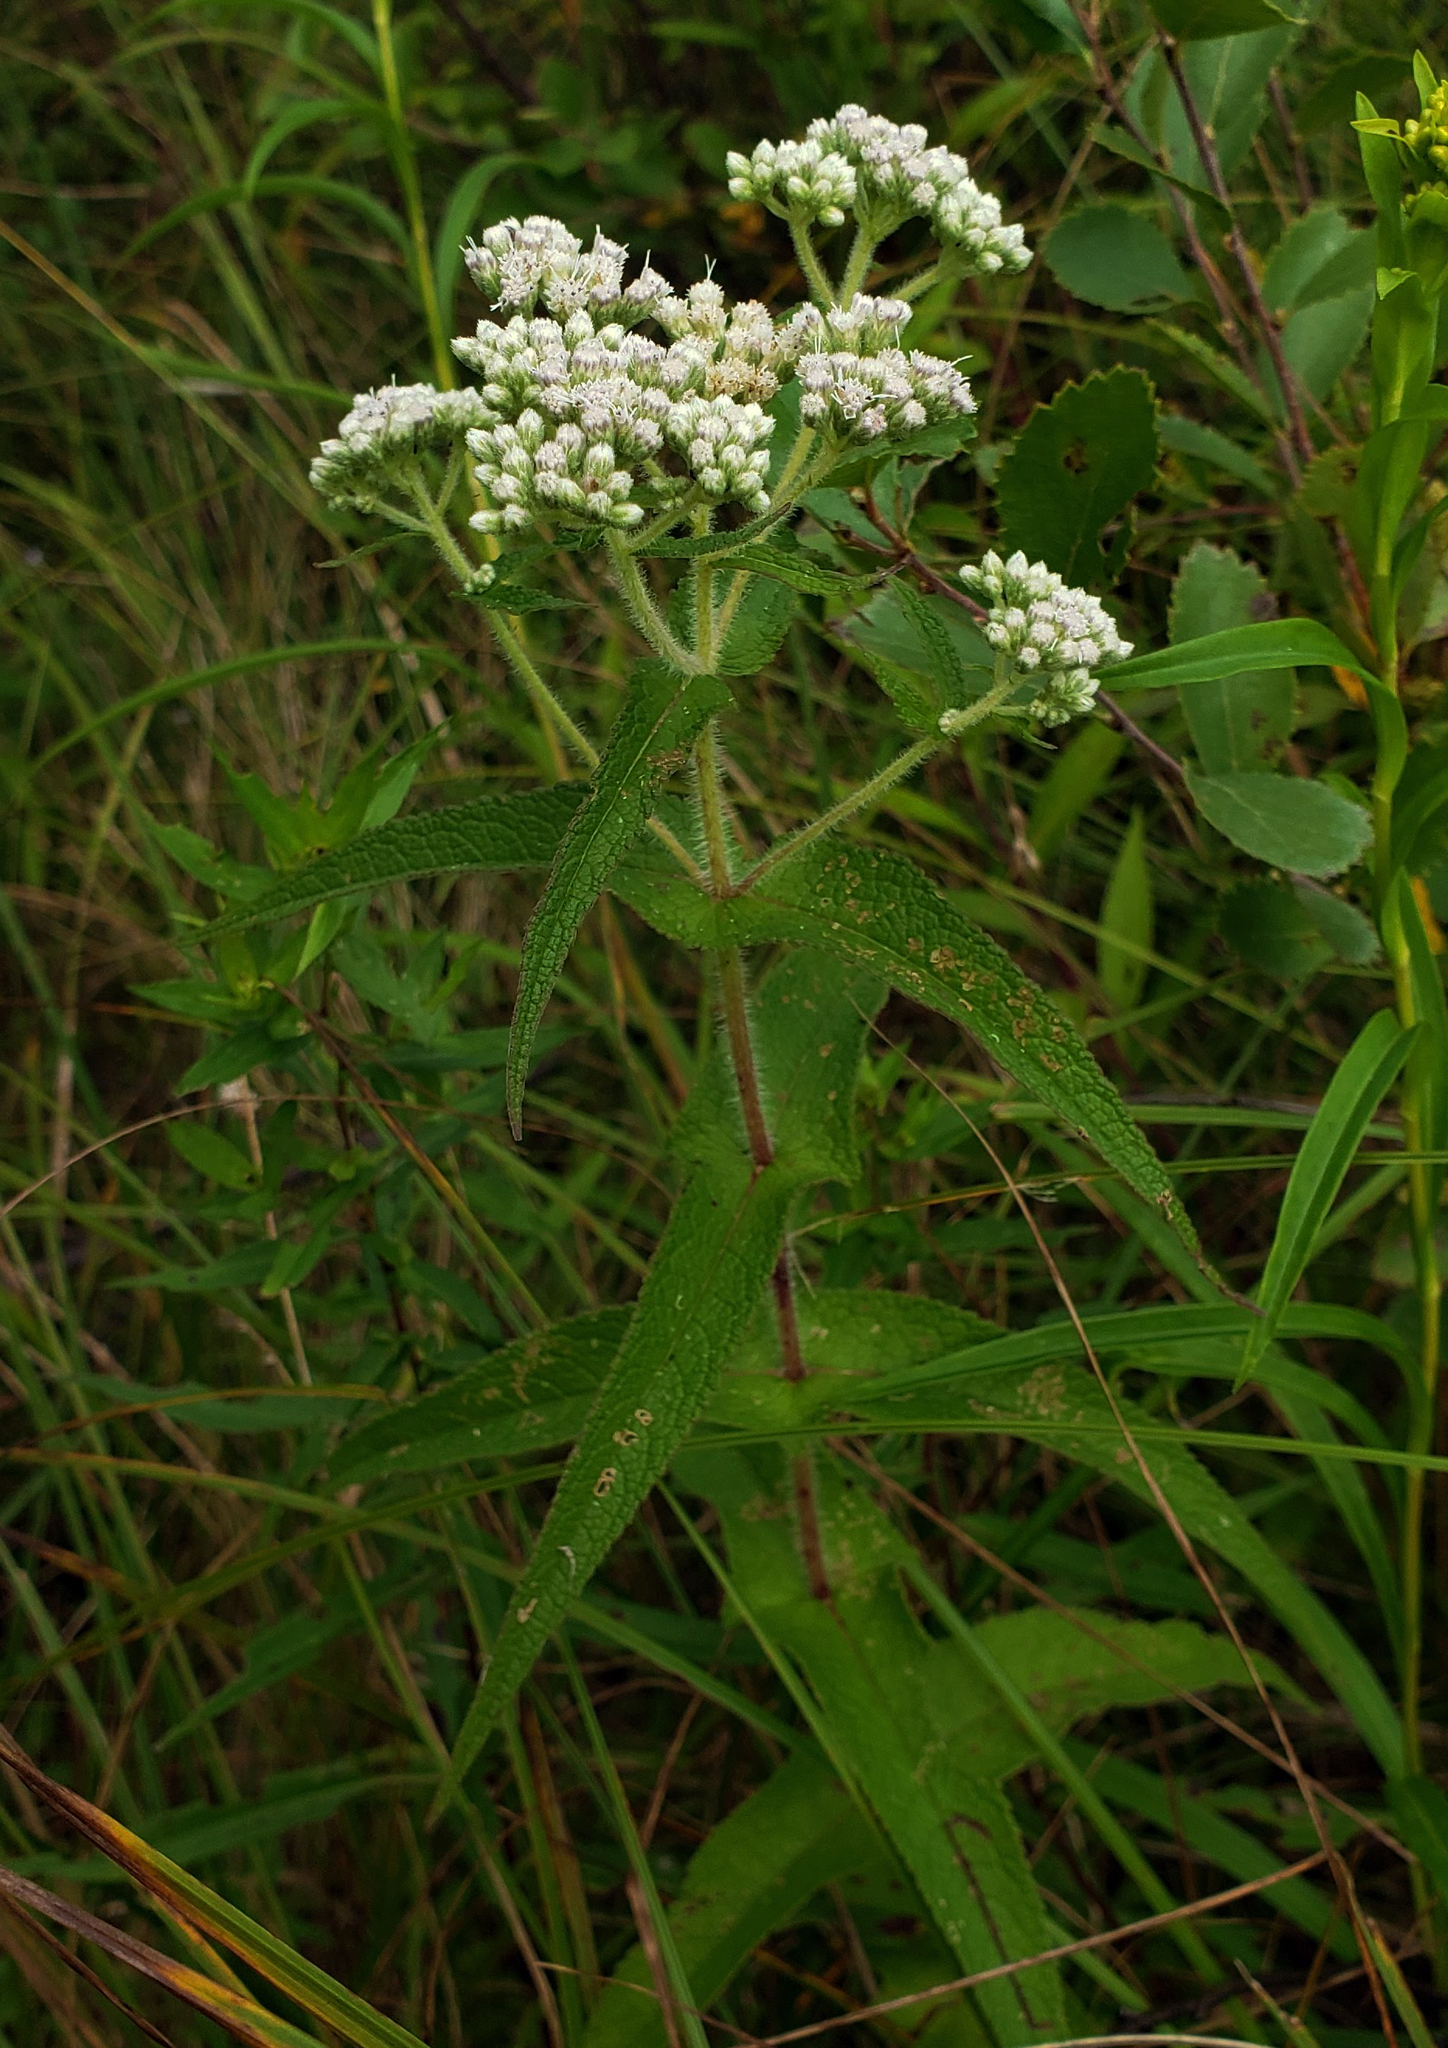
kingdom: Plantae
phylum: Tracheophyta
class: Magnoliopsida
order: Asterales
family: Asteraceae
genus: Eupatorium
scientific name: Eupatorium perfoliatum
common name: Boneset
